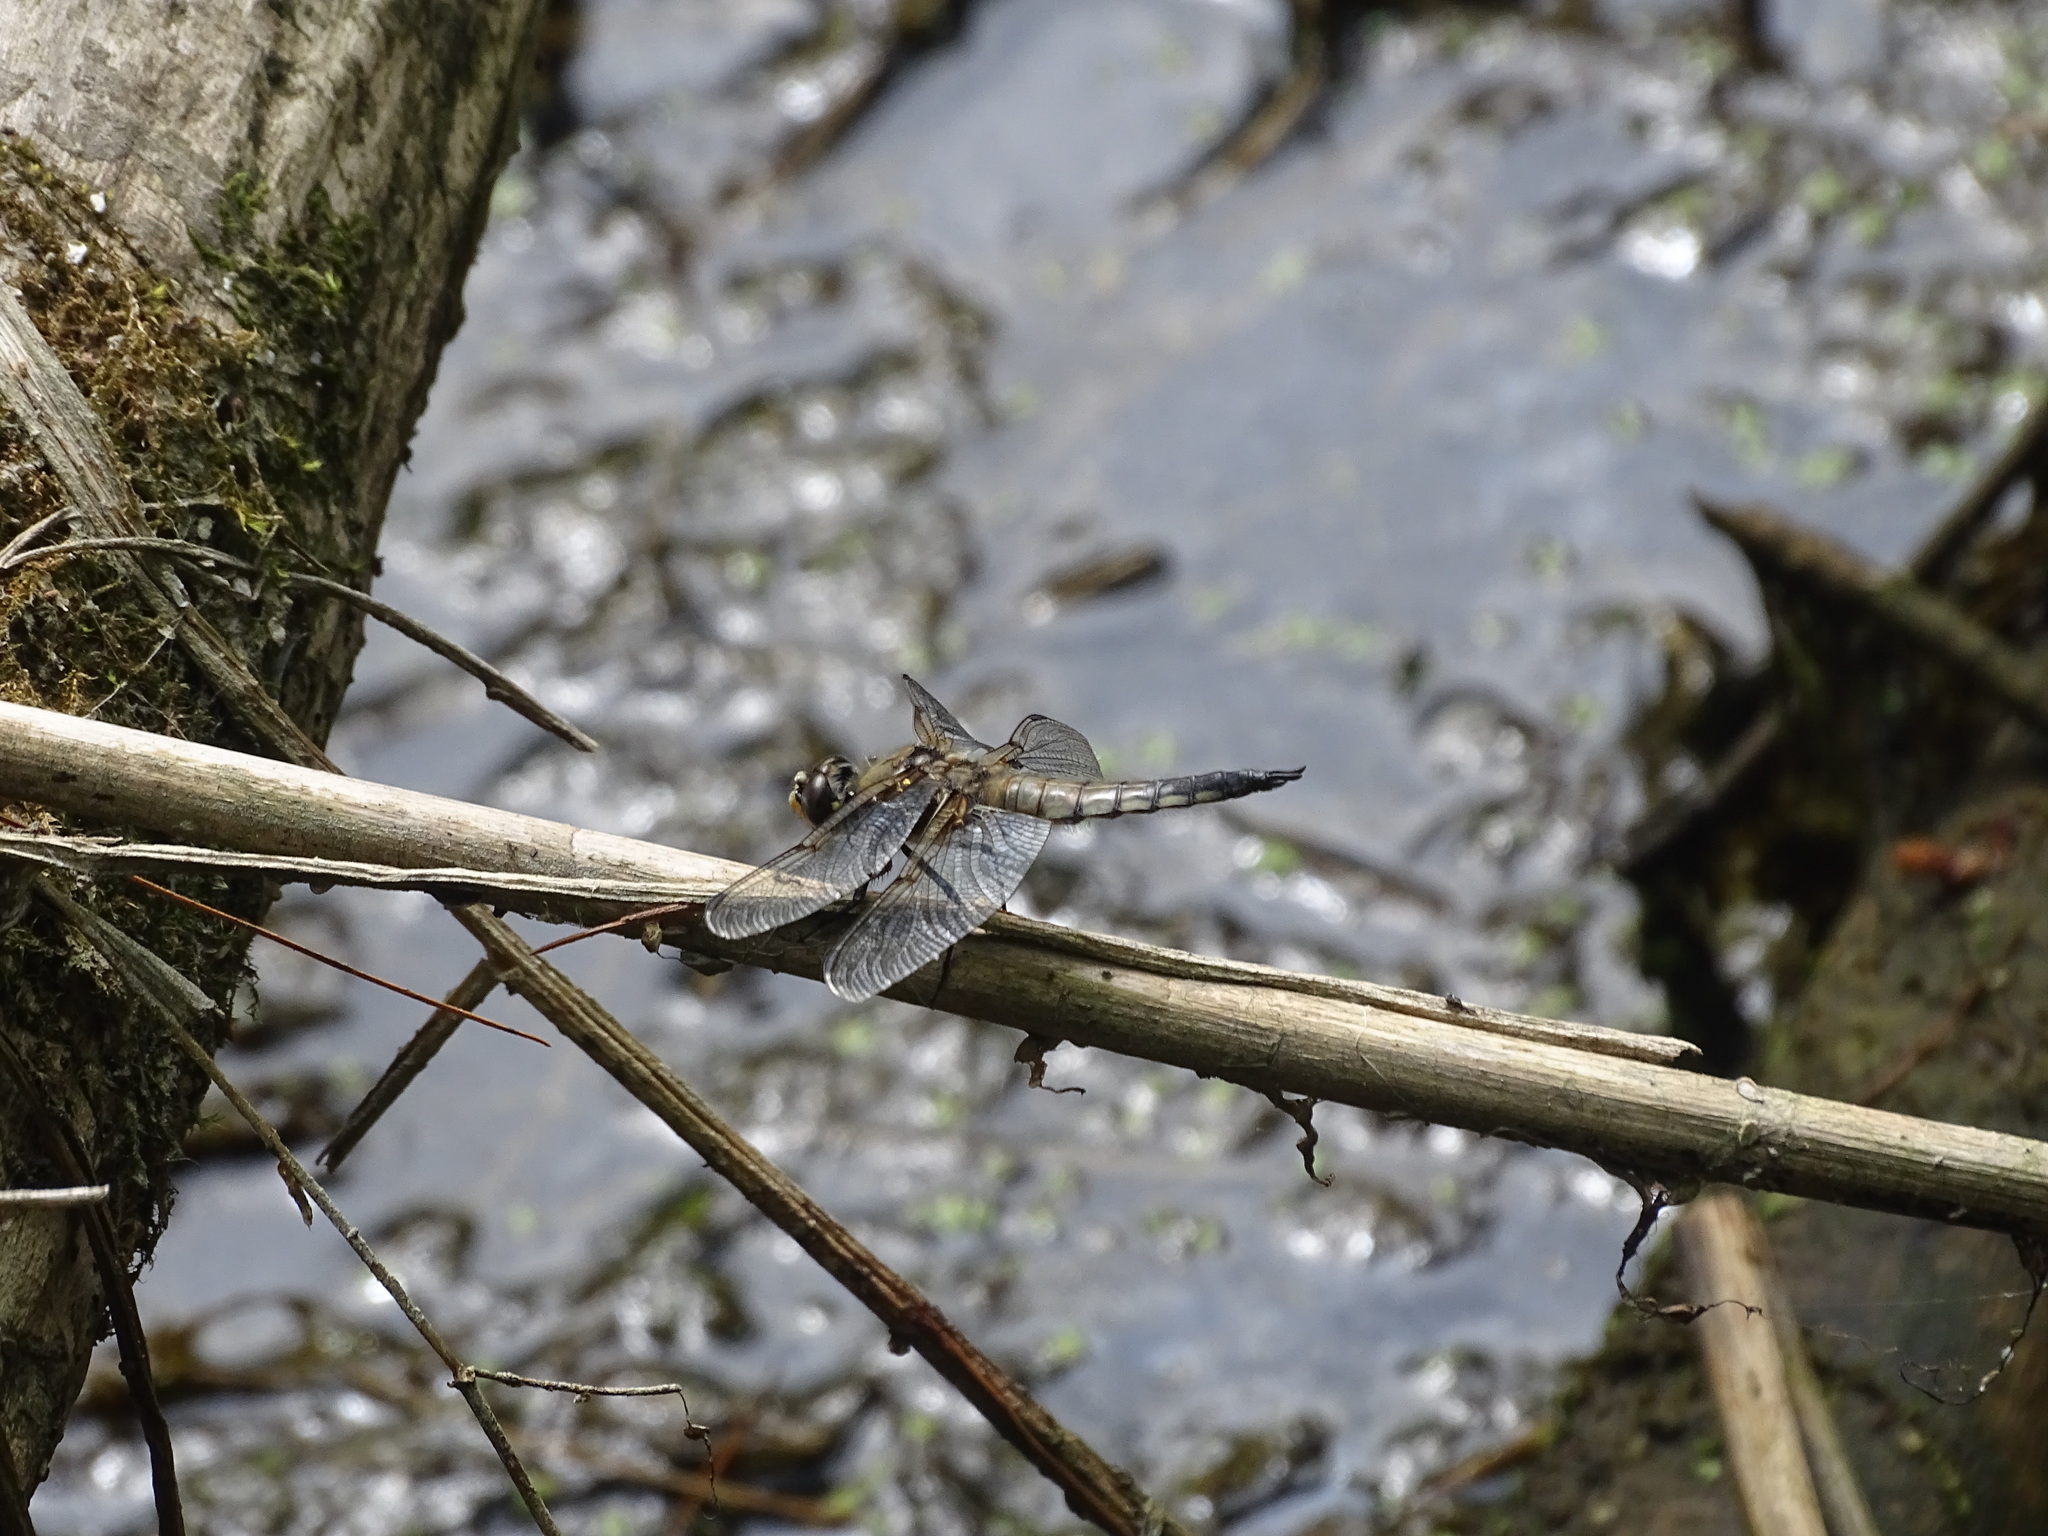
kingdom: Animalia
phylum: Arthropoda
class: Insecta
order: Odonata
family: Libellulidae
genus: Libellula
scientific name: Libellula quadrimaculata
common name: Four-spotted chaser
